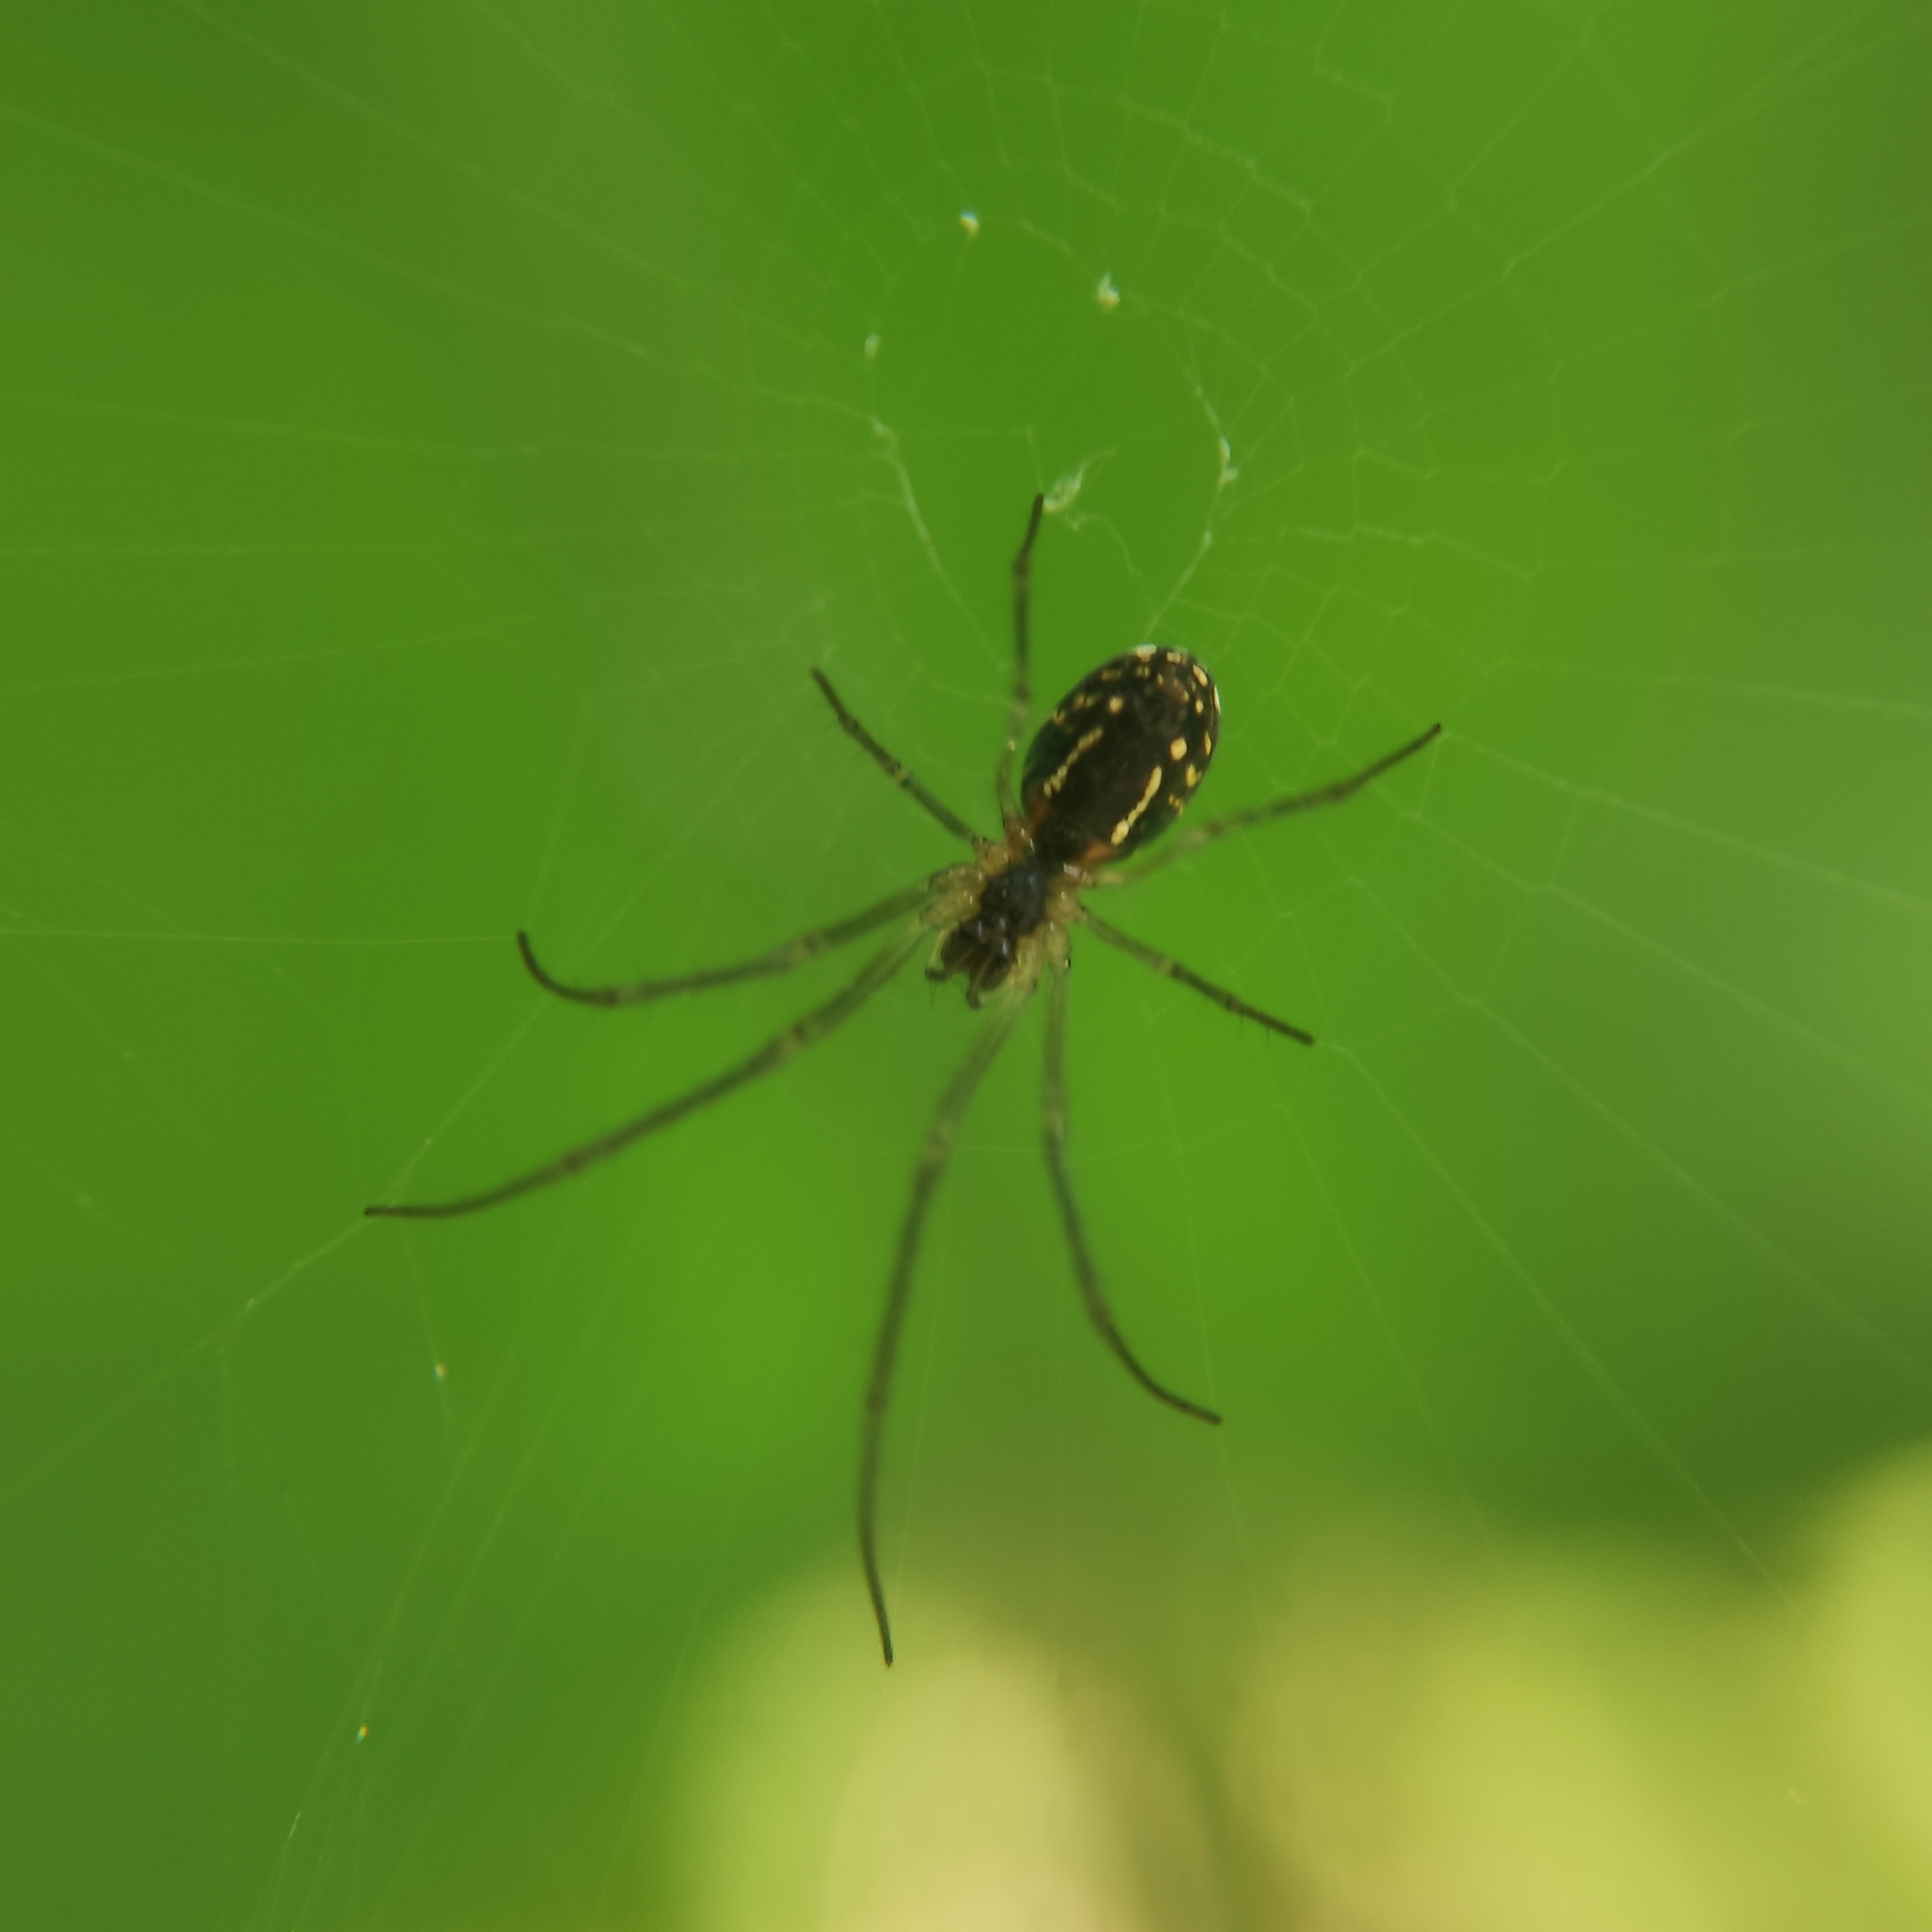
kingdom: Animalia
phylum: Arthropoda
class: Arachnida
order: Araneae
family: Tetragnathidae
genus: Leucauge
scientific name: Leucauge volupis
